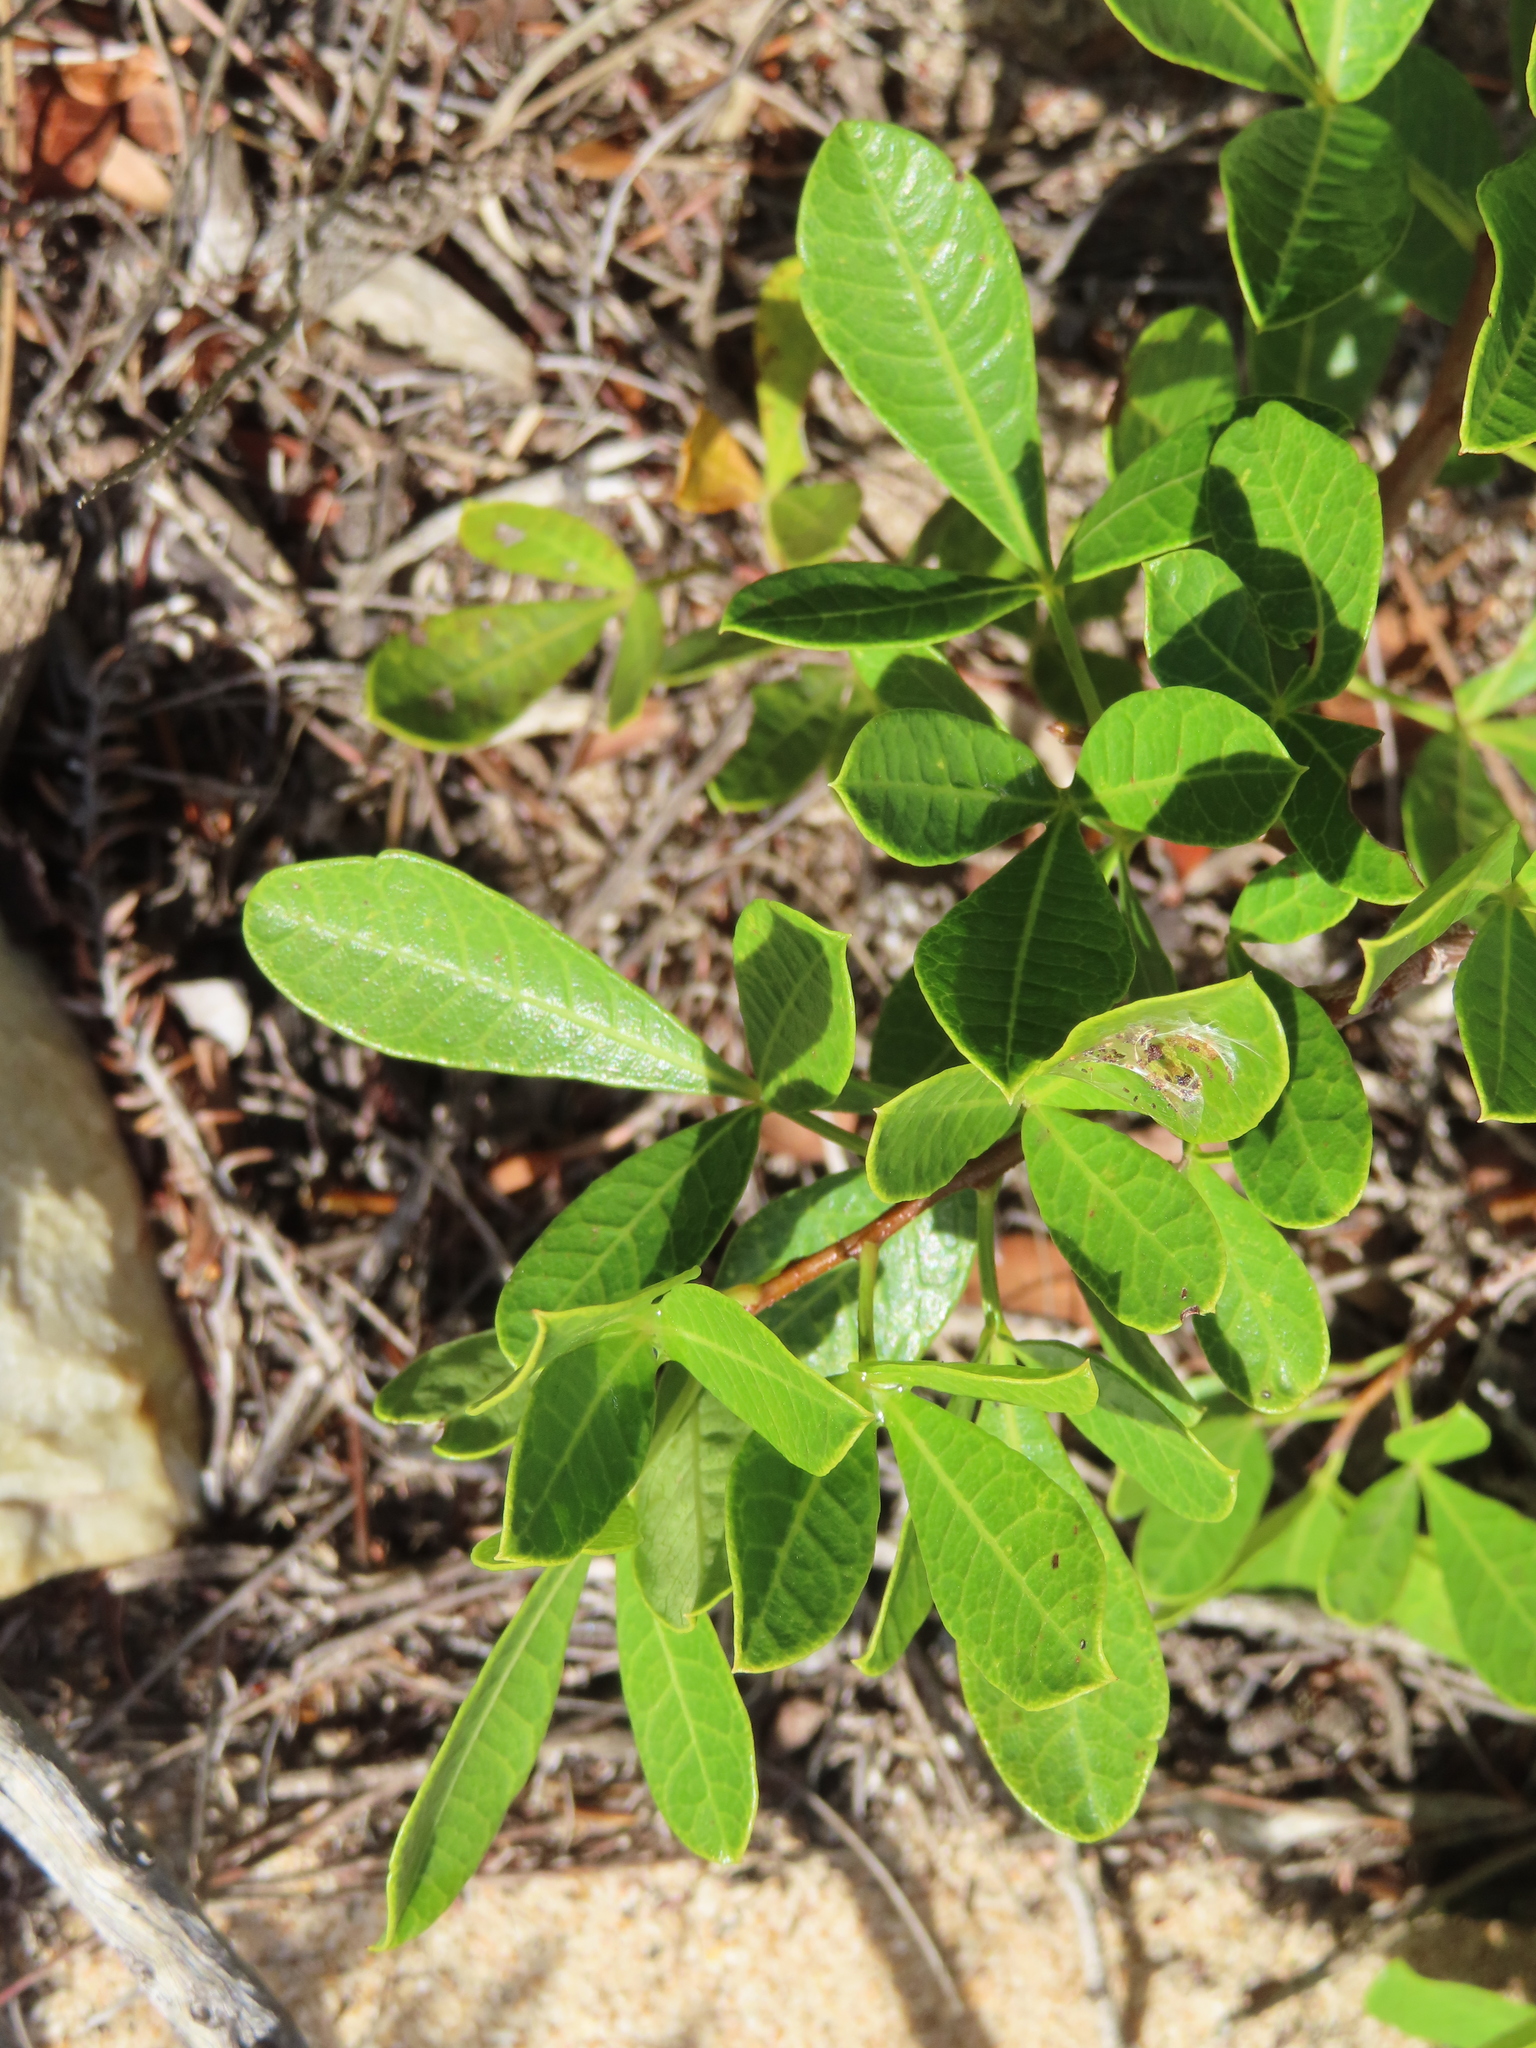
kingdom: Plantae
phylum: Tracheophyta
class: Magnoliopsida
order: Sapindales
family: Anacardiaceae
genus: Searsia
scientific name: Searsia laevigata
